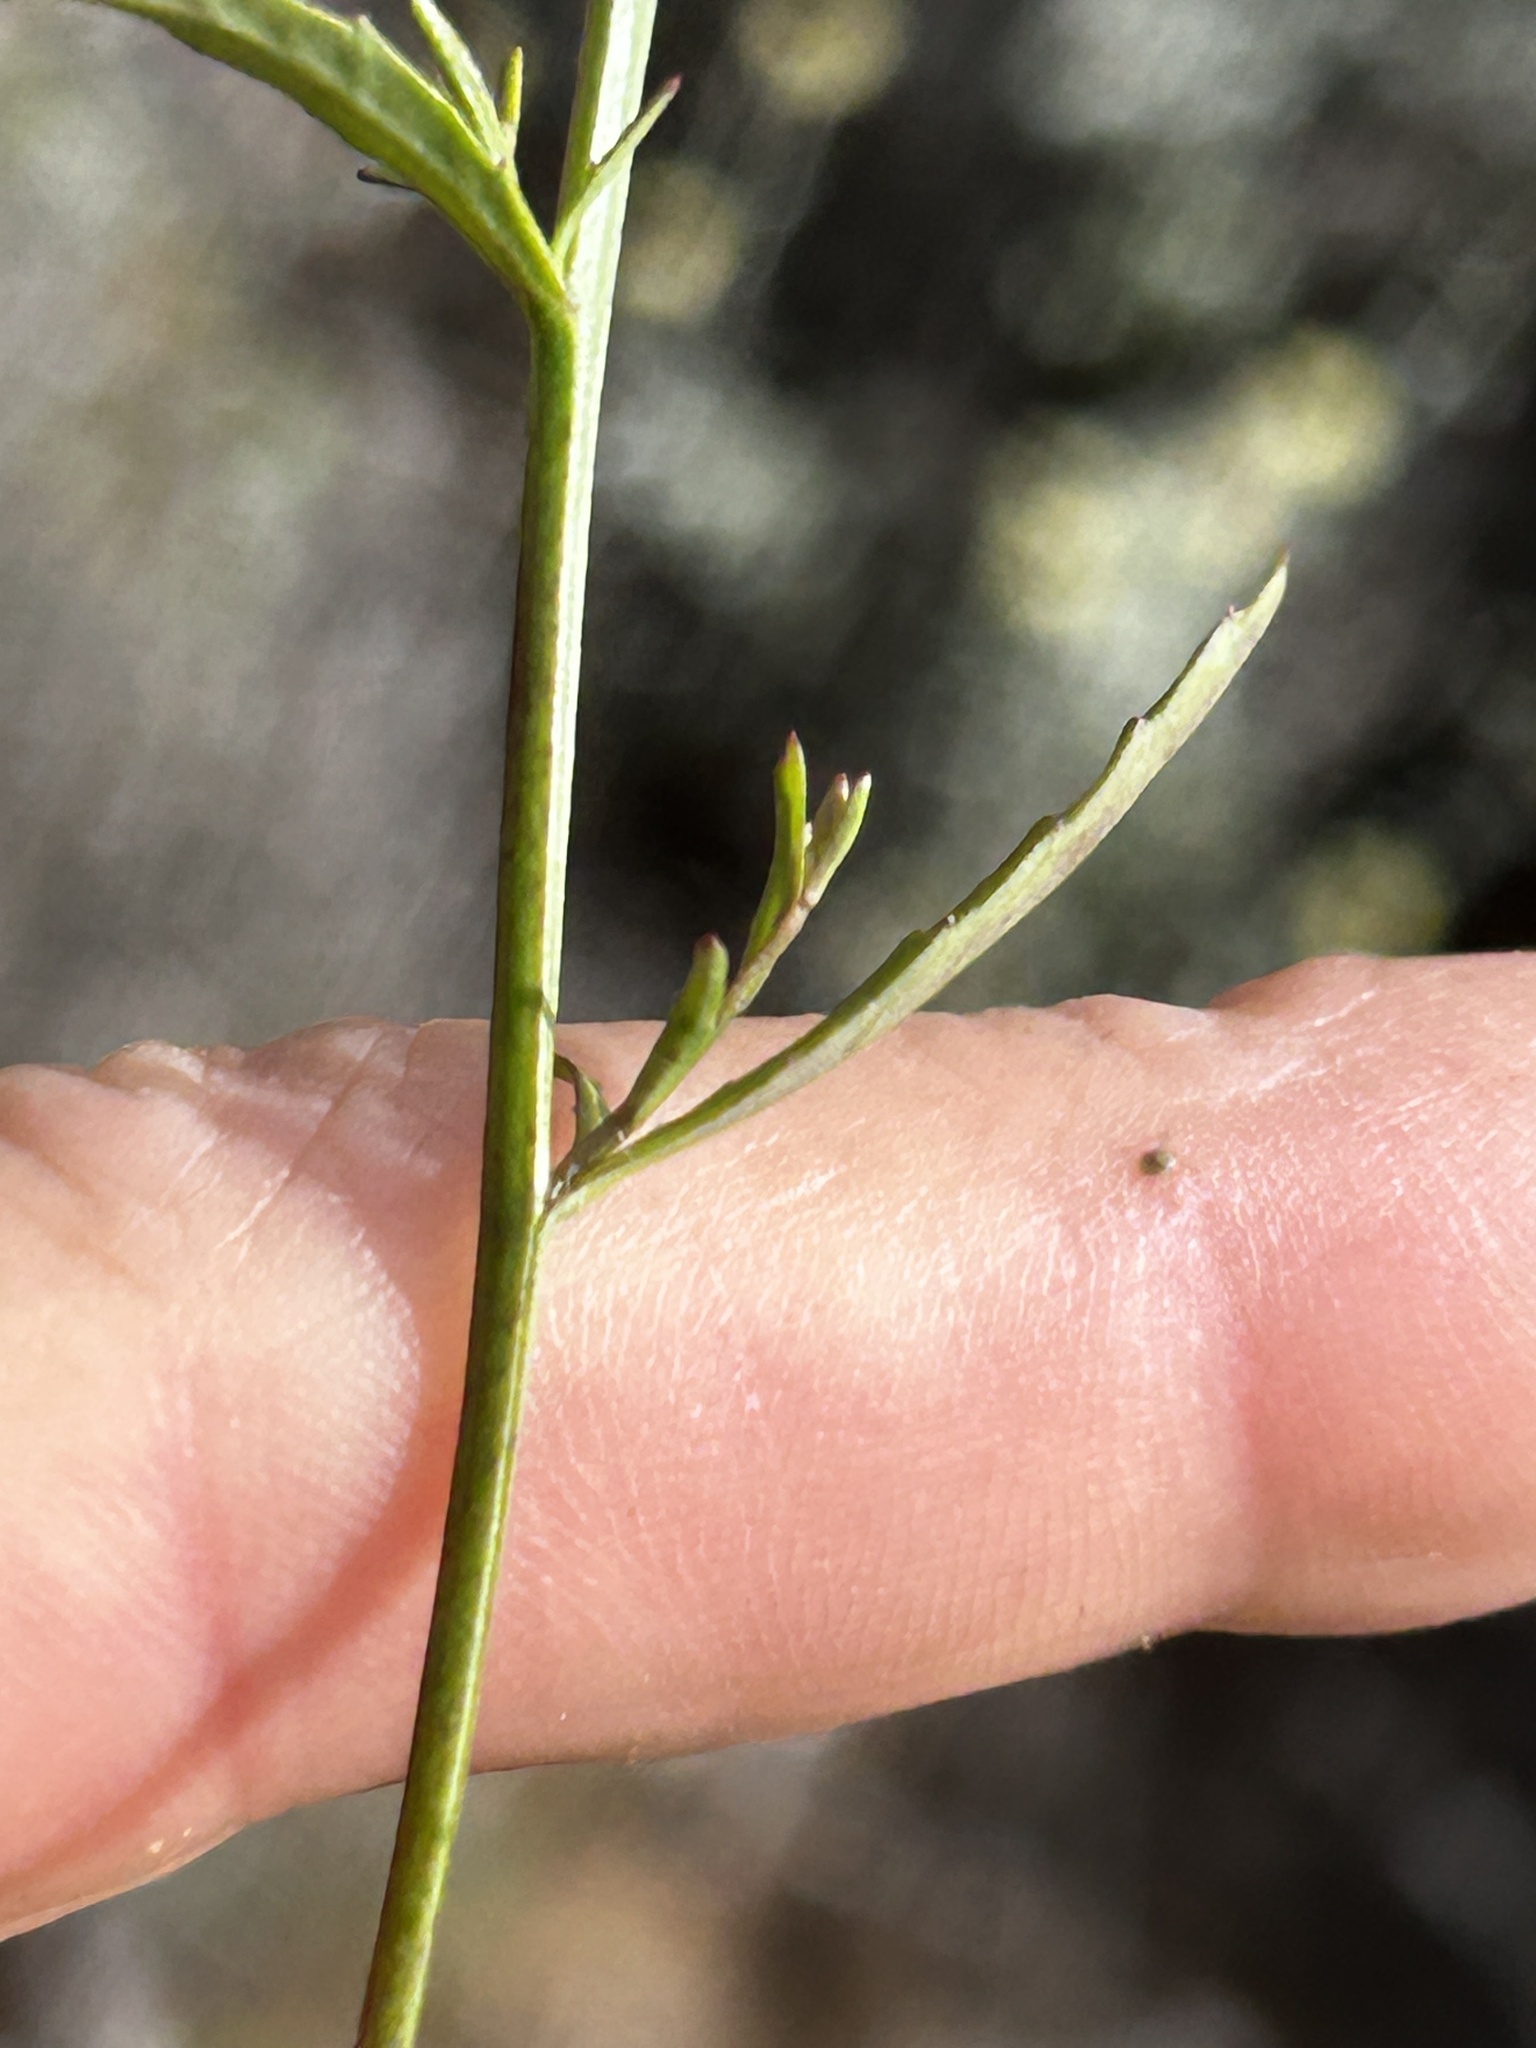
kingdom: Plantae
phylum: Tracheophyta
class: Magnoliopsida
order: Asterales
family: Campanulaceae
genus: Lobelia
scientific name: Lobelia erinus
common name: Edging lobelia
